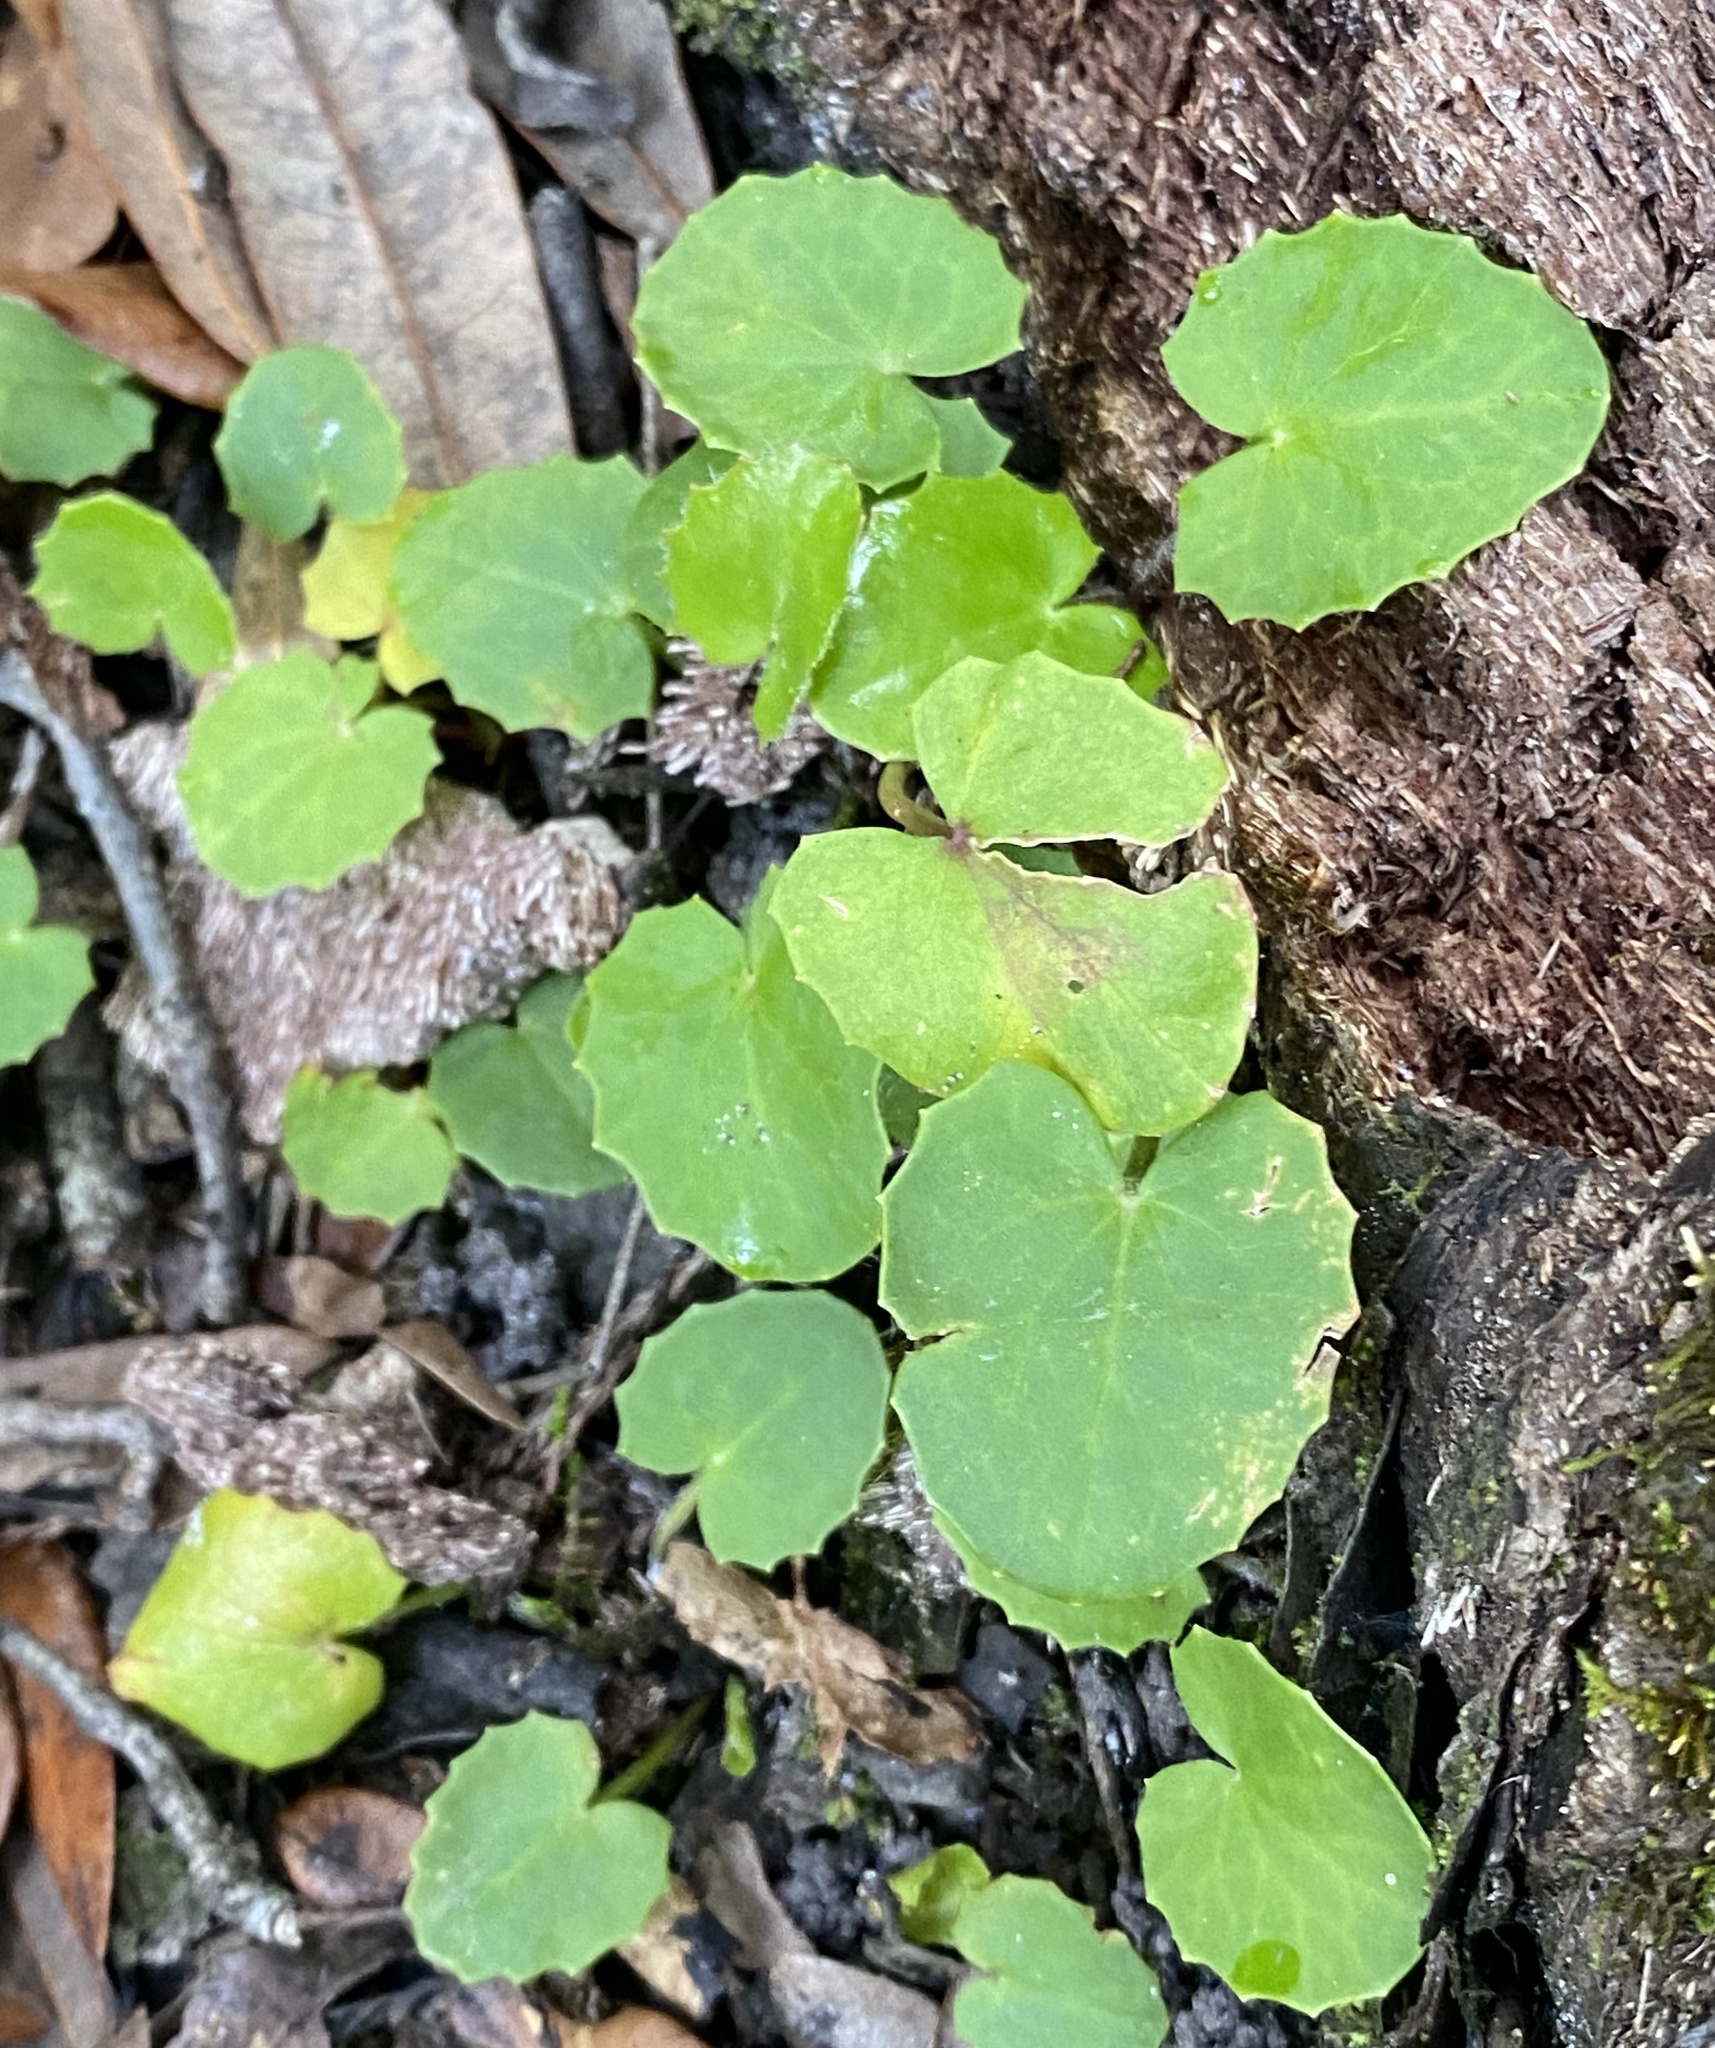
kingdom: Plantae
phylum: Tracheophyta
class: Magnoliopsida
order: Apiales
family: Apiaceae
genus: Centella
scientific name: Centella erecta
